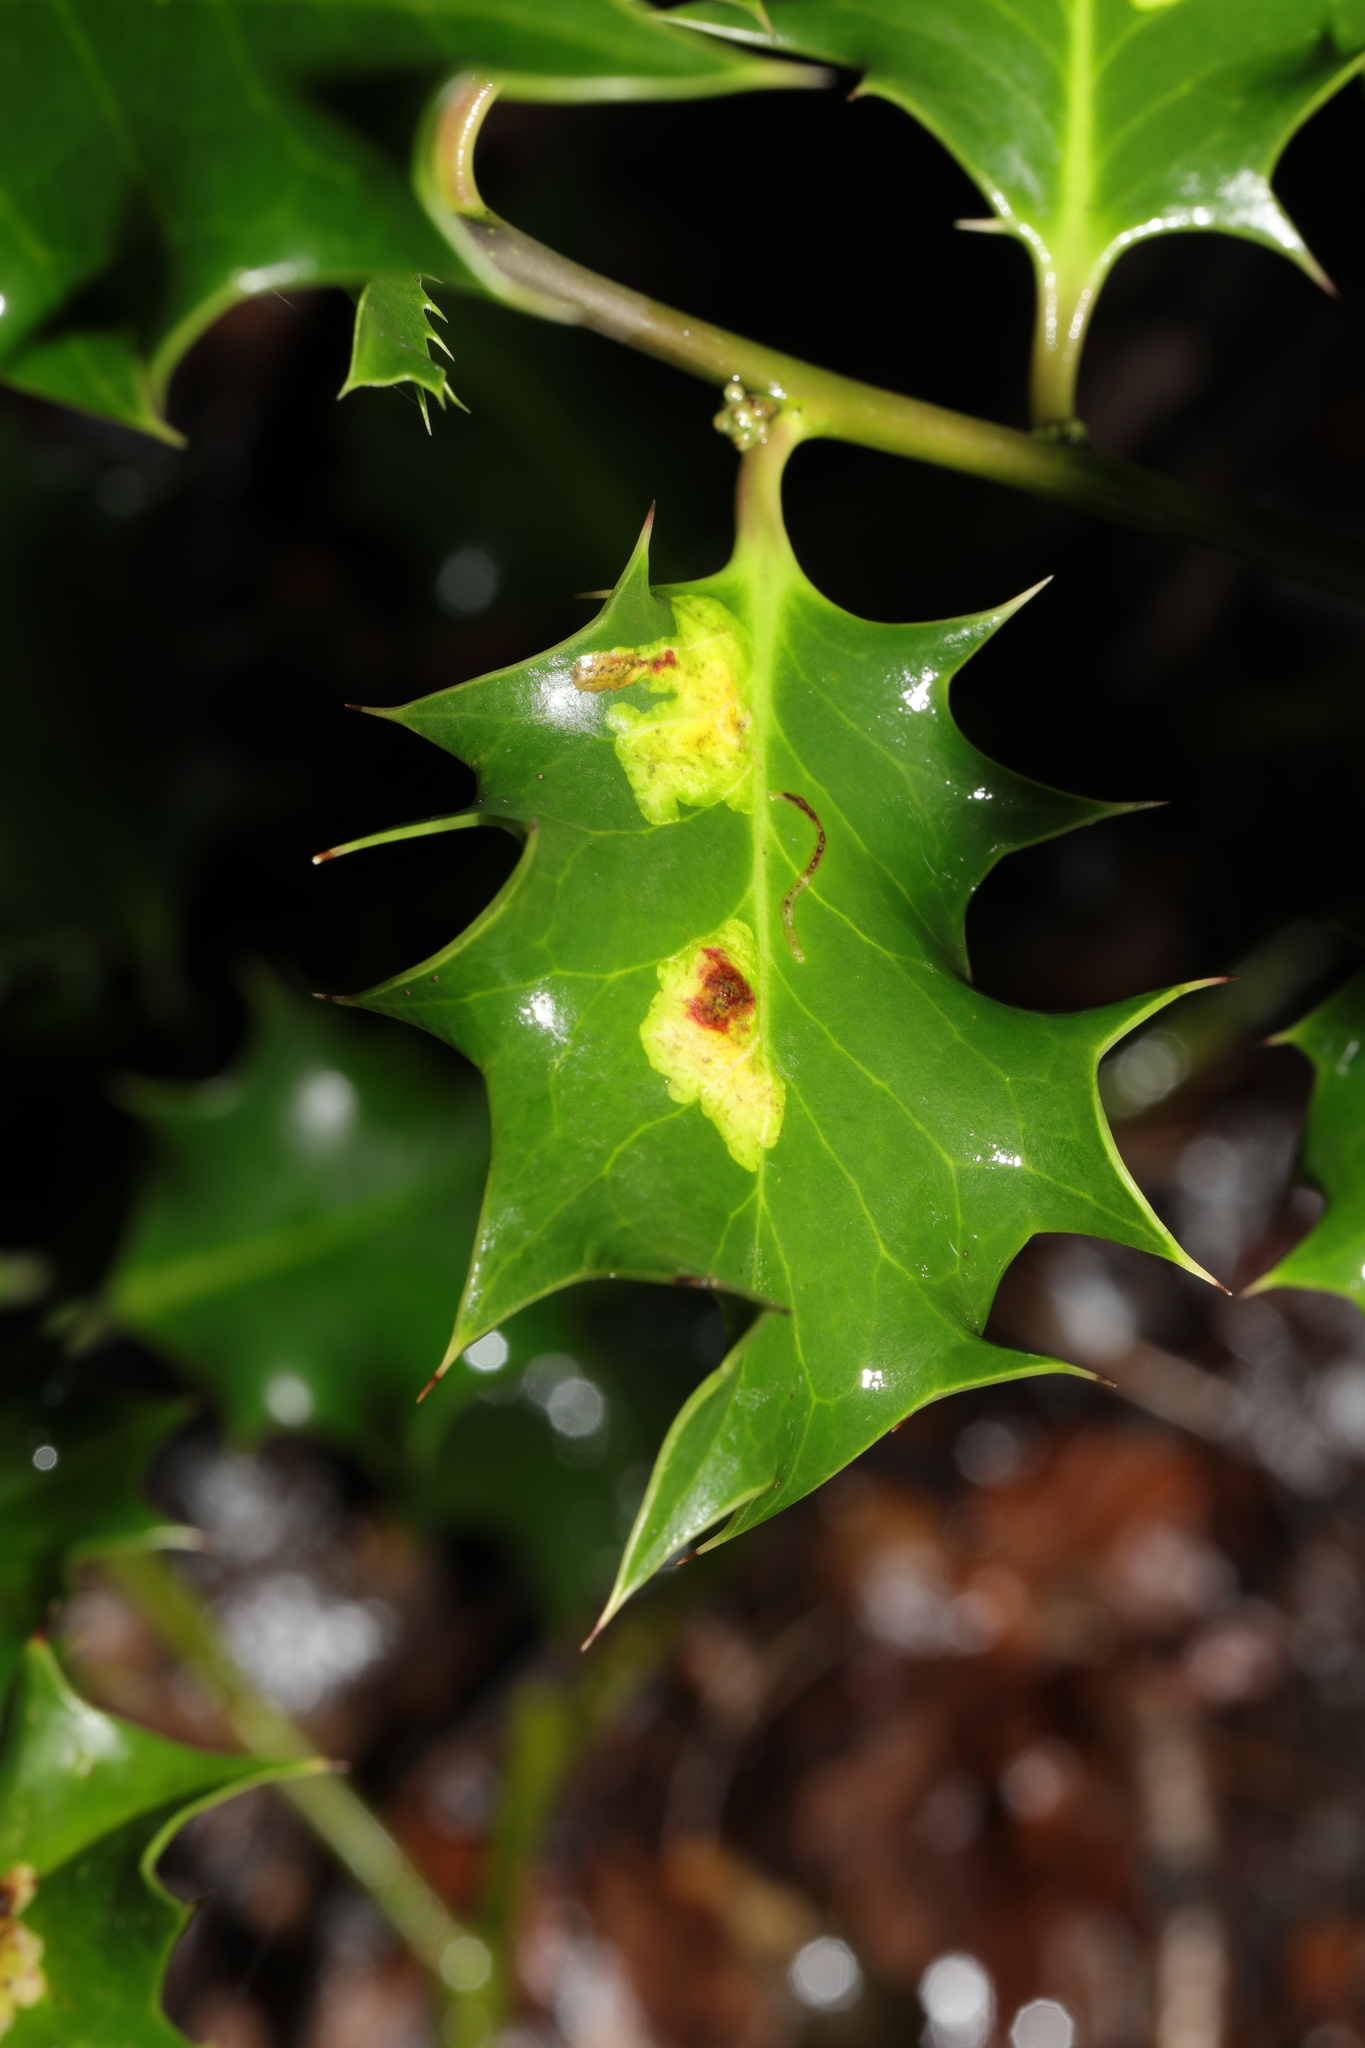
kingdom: Animalia
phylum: Arthropoda
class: Insecta
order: Diptera
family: Agromyzidae
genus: Phytomyza
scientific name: Phytomyza ilicis
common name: Holly leafminer
